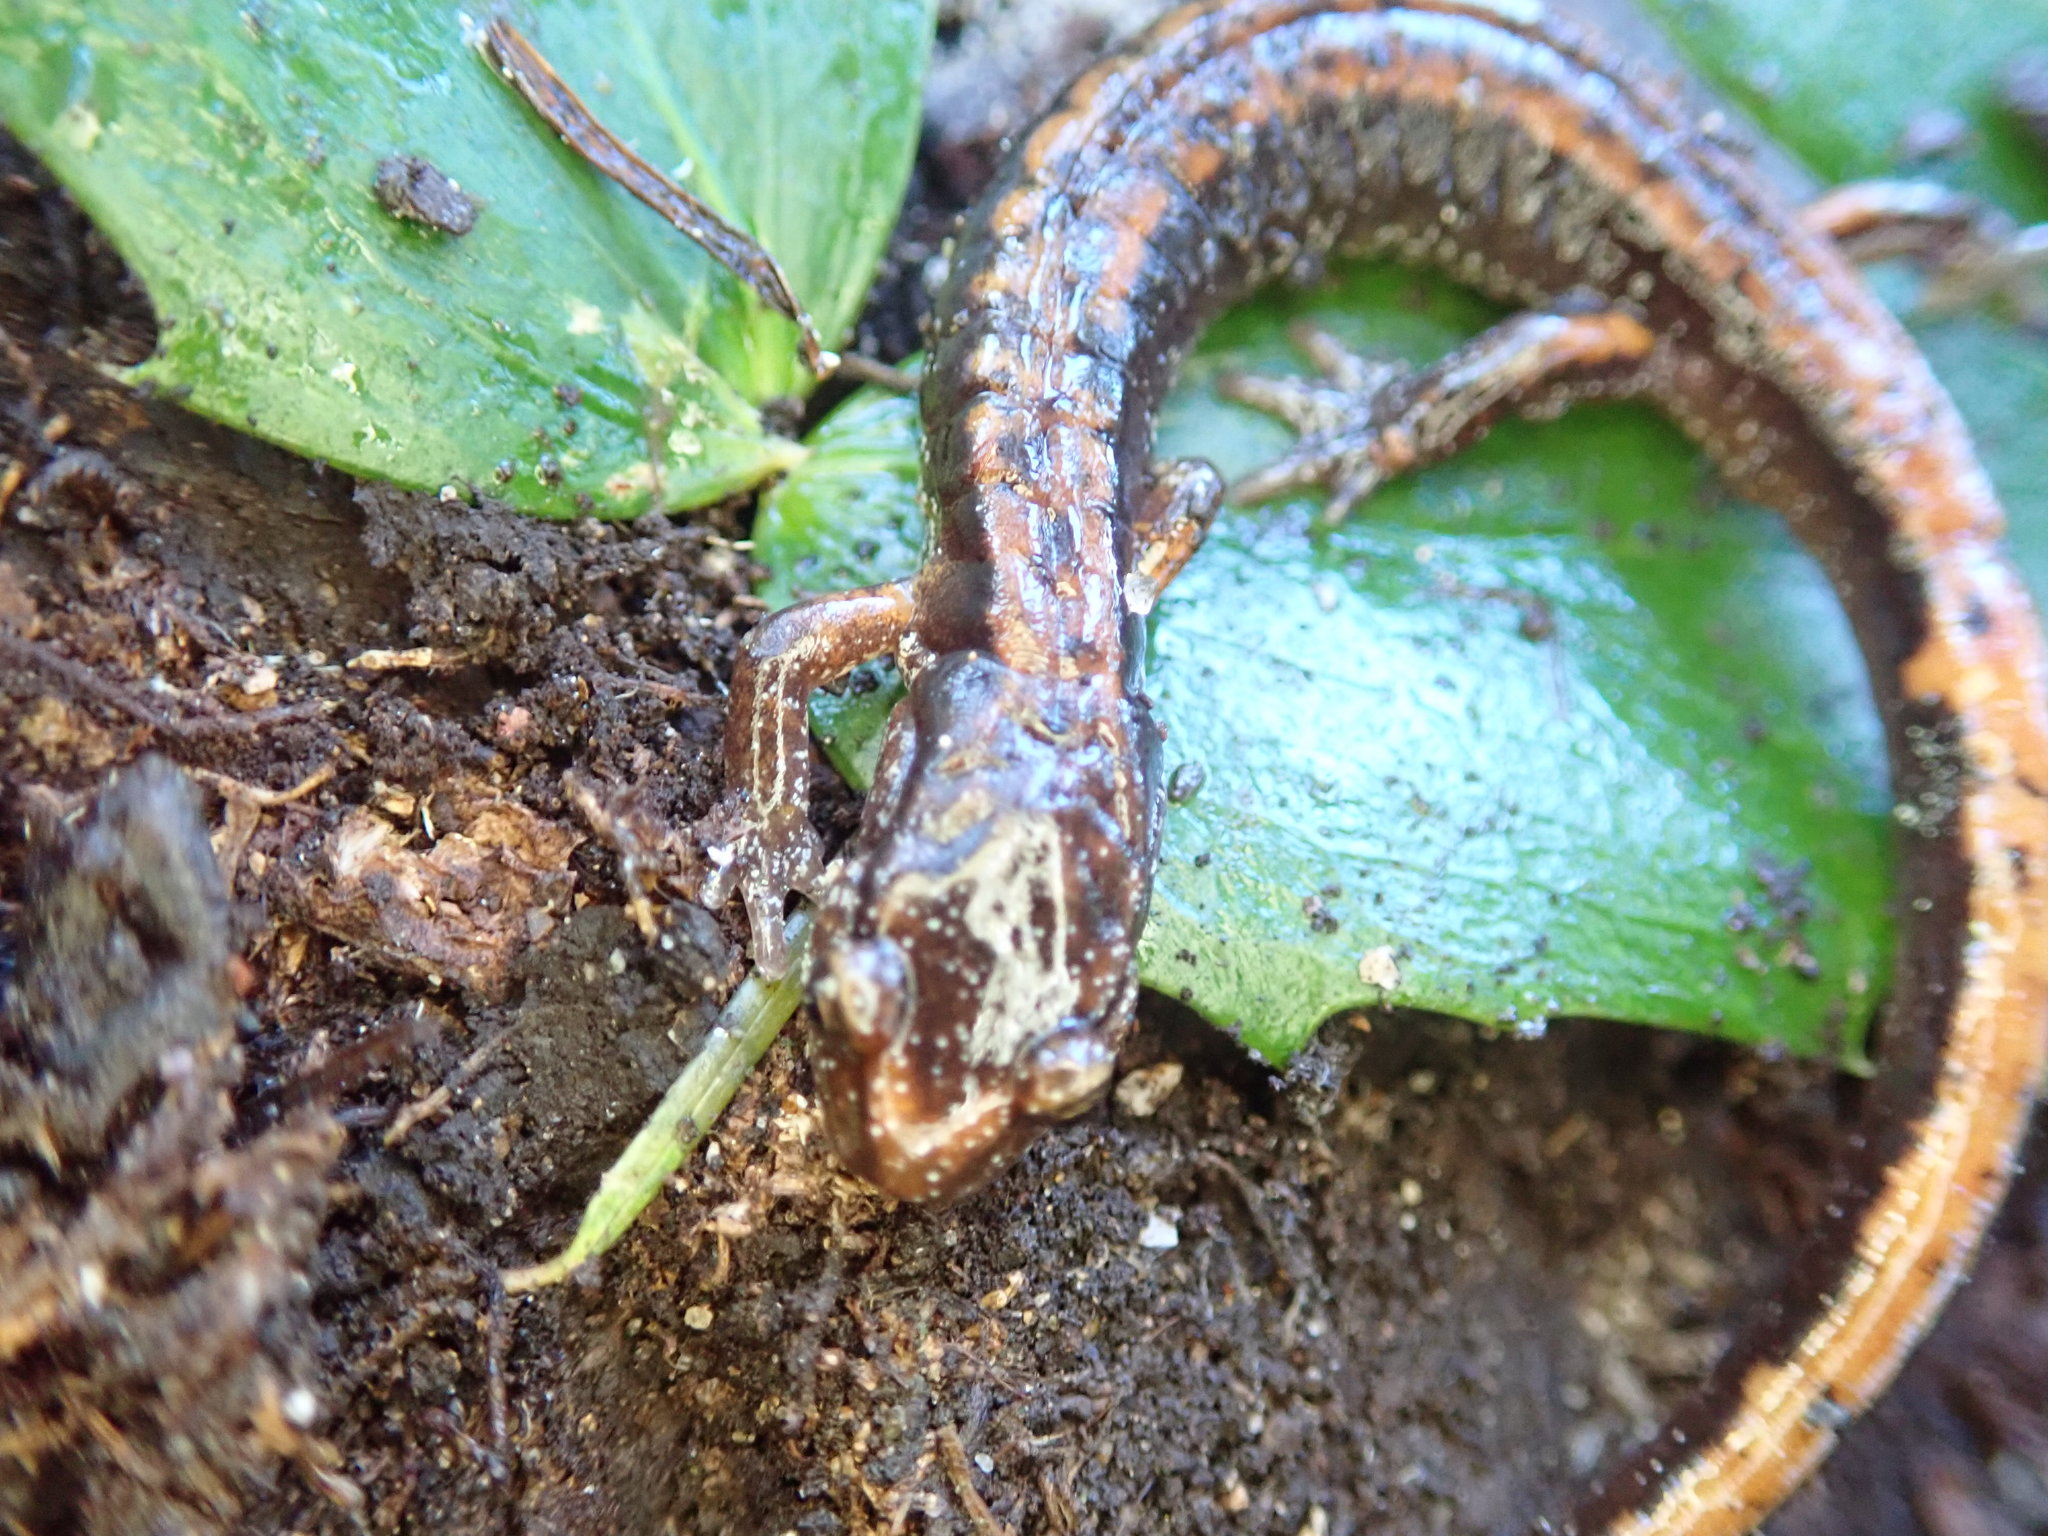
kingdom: Animalia
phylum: Chordata
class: Amphibia
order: Caudata
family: Plethodontidae
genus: Plethodon
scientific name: Plethodon vehiculum
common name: Western red-backed salamander
